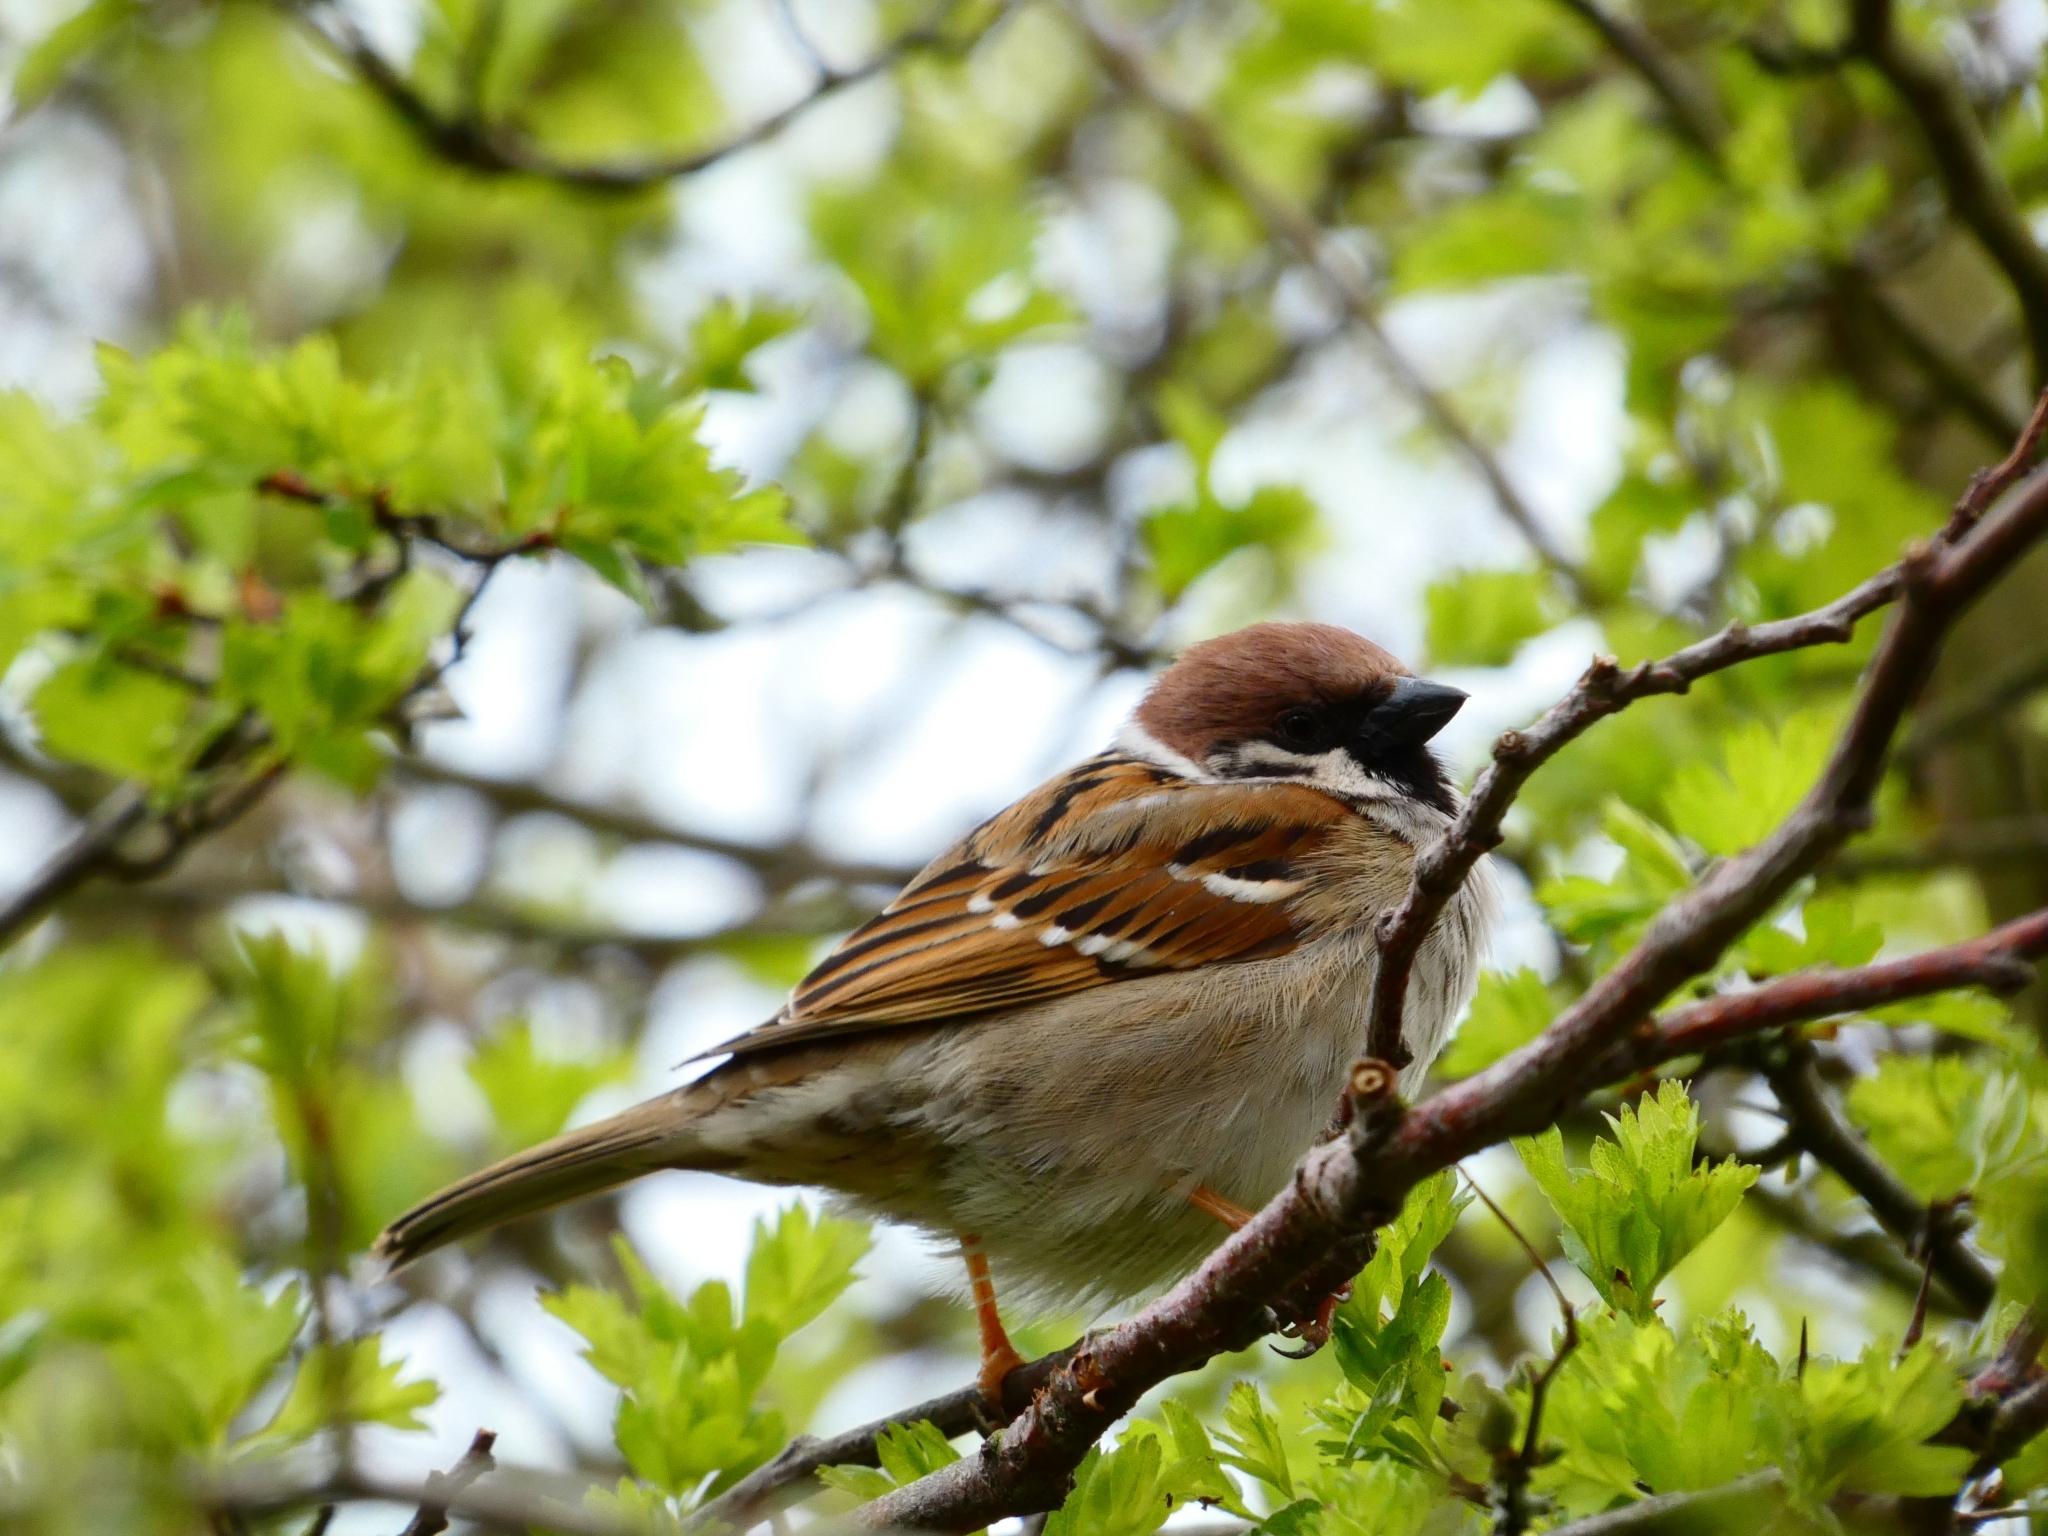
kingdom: Animalia
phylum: Chordata
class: Aves
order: Passeriformes
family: Passeridae
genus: Passer
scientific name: Passer montanus
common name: Eurasian tree sparrow
